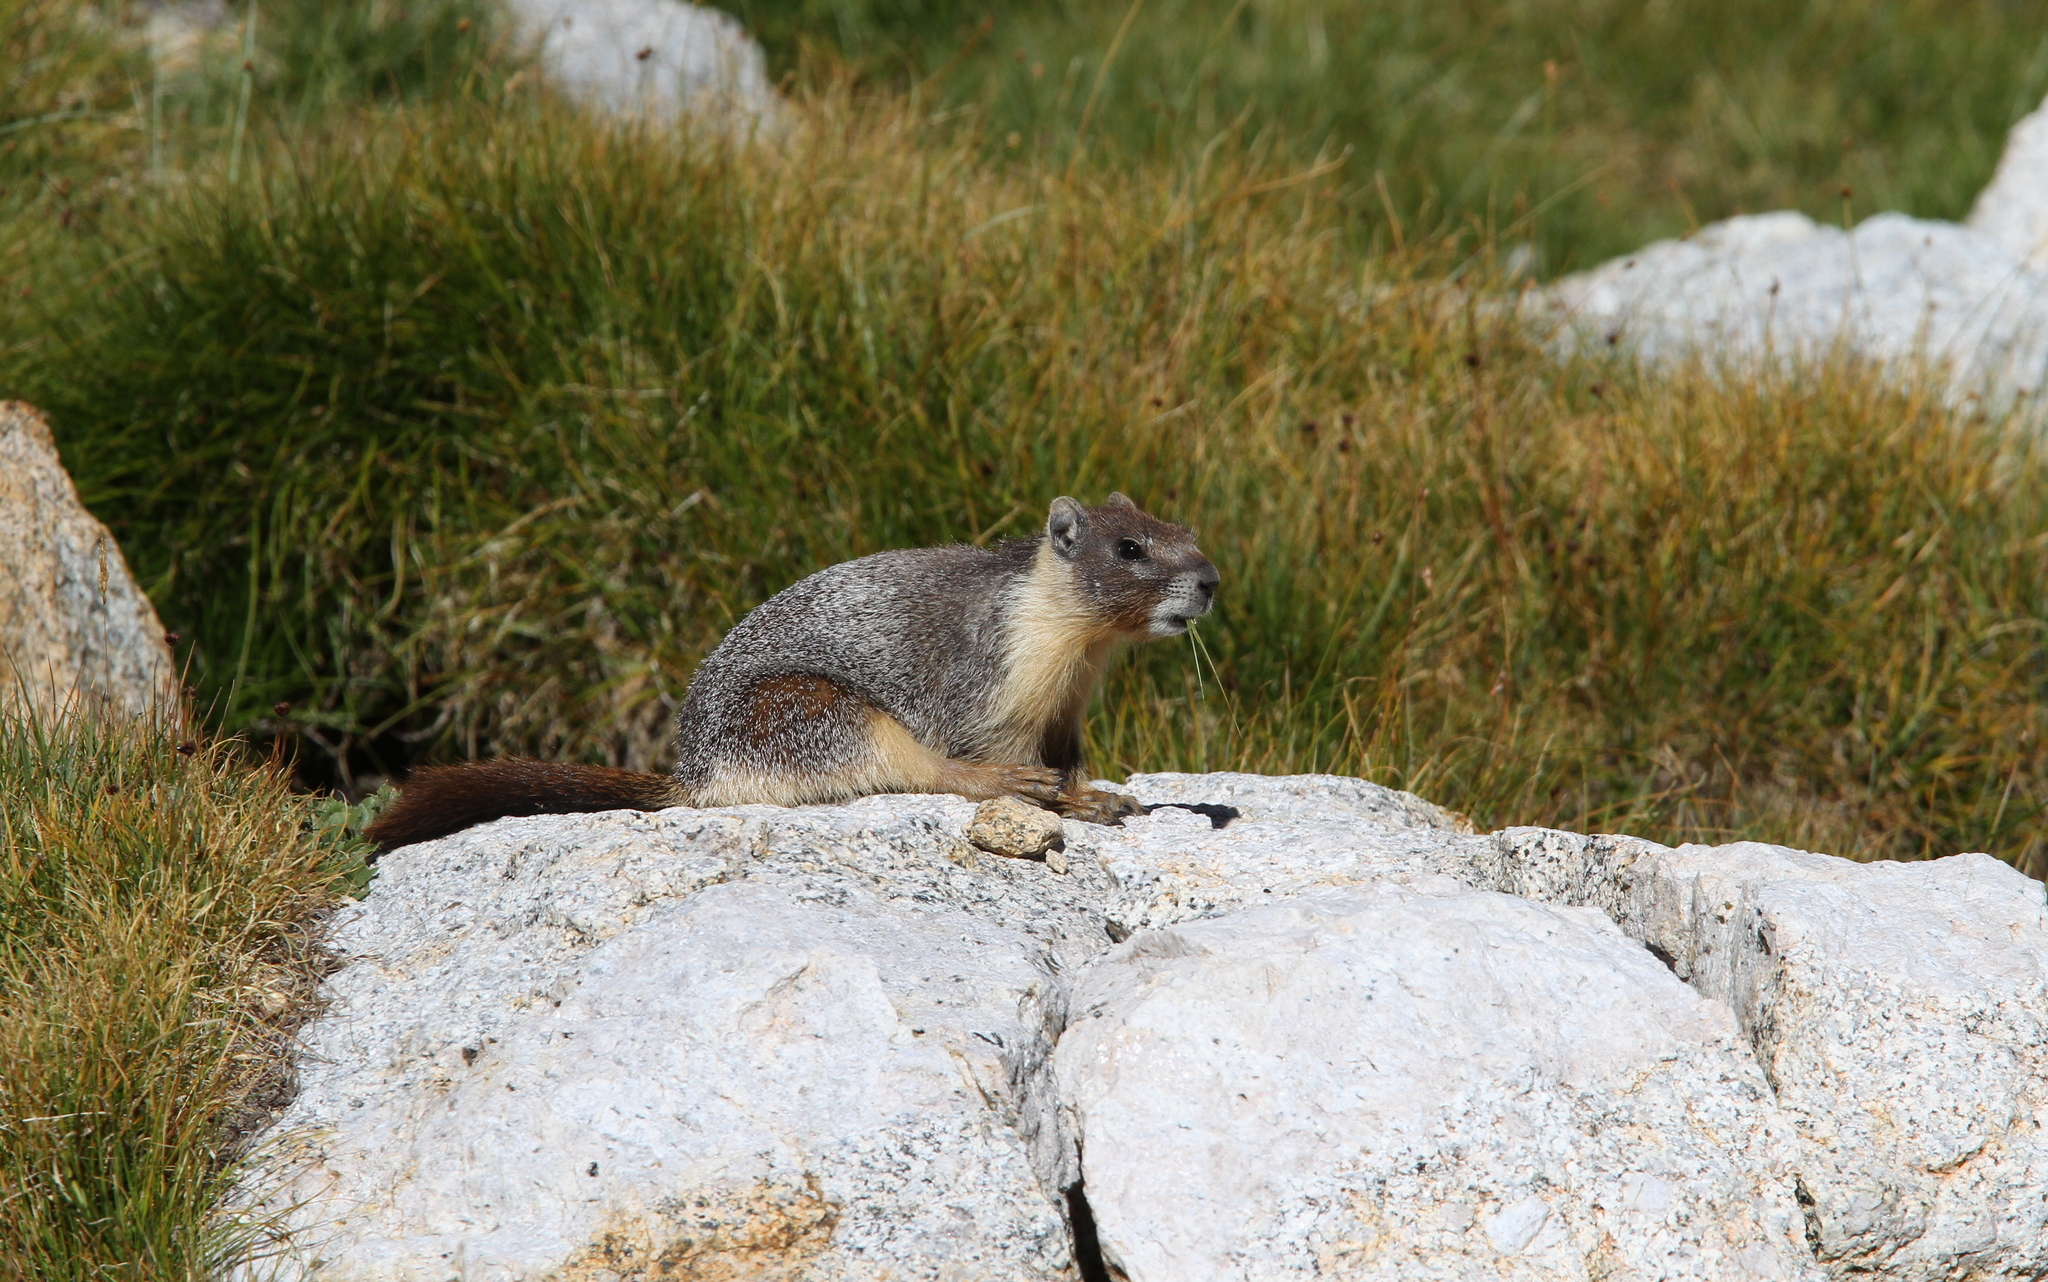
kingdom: Animalia
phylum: Chordata
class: Mammalia
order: Rodentia
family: Sciuridae
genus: Marmota
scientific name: Marmota flaviventris
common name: Yellow-bellied marmot
